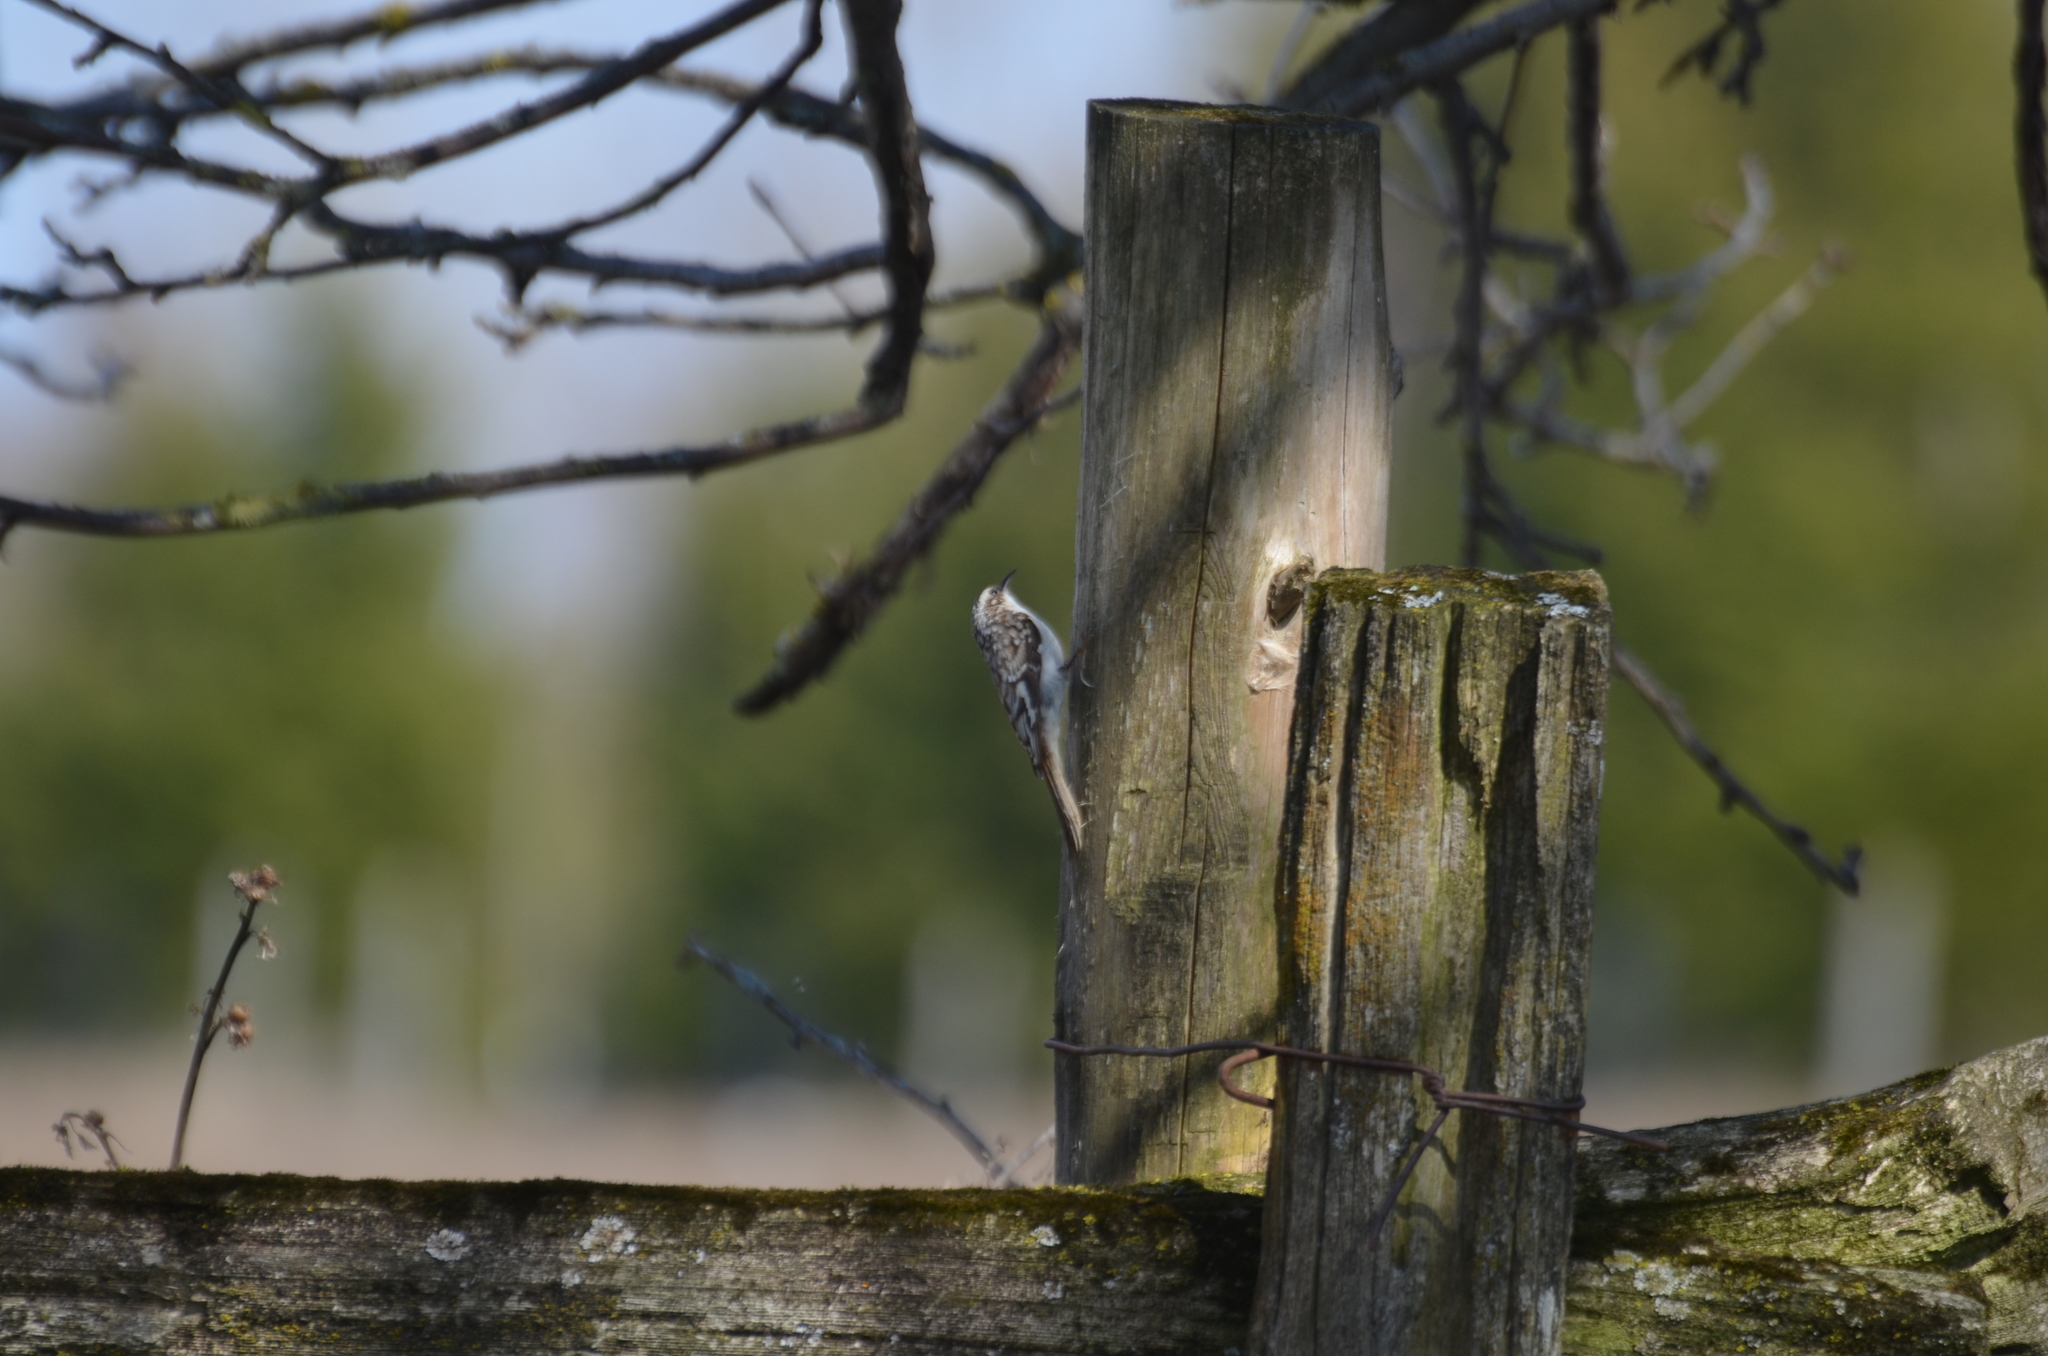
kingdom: Animalia
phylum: Chordata
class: Aves
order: Passeriformes
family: Certhiidae
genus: Certhia
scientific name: Certhia americana
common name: Brown creeper
